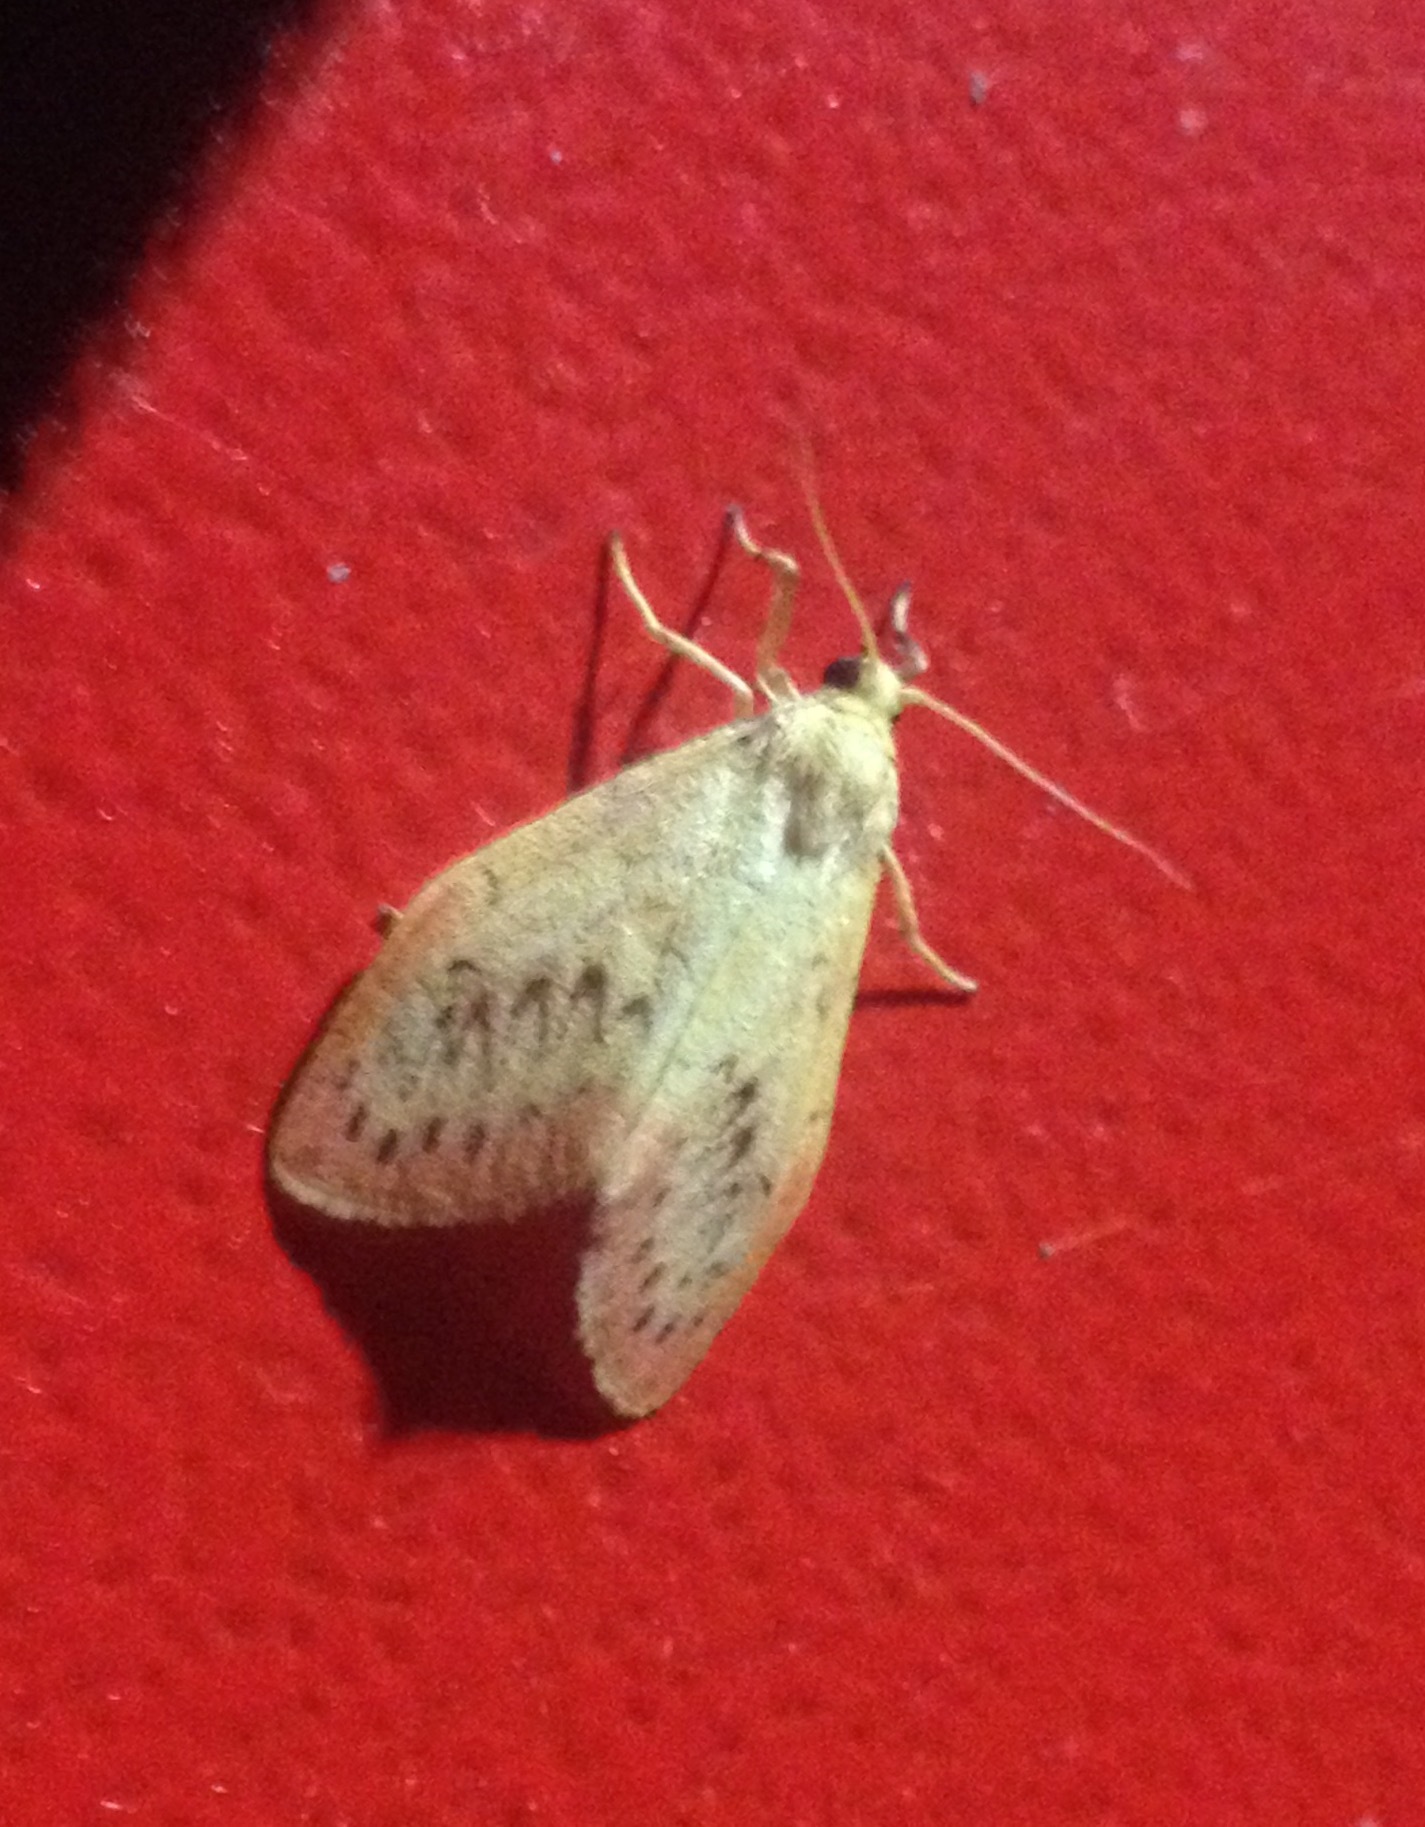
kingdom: Animalia
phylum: Arthropoda
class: Insecta
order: Lepidoptera
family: Erebidae
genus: Miltochrista
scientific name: Miltochrista miniata
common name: Rosy footman
